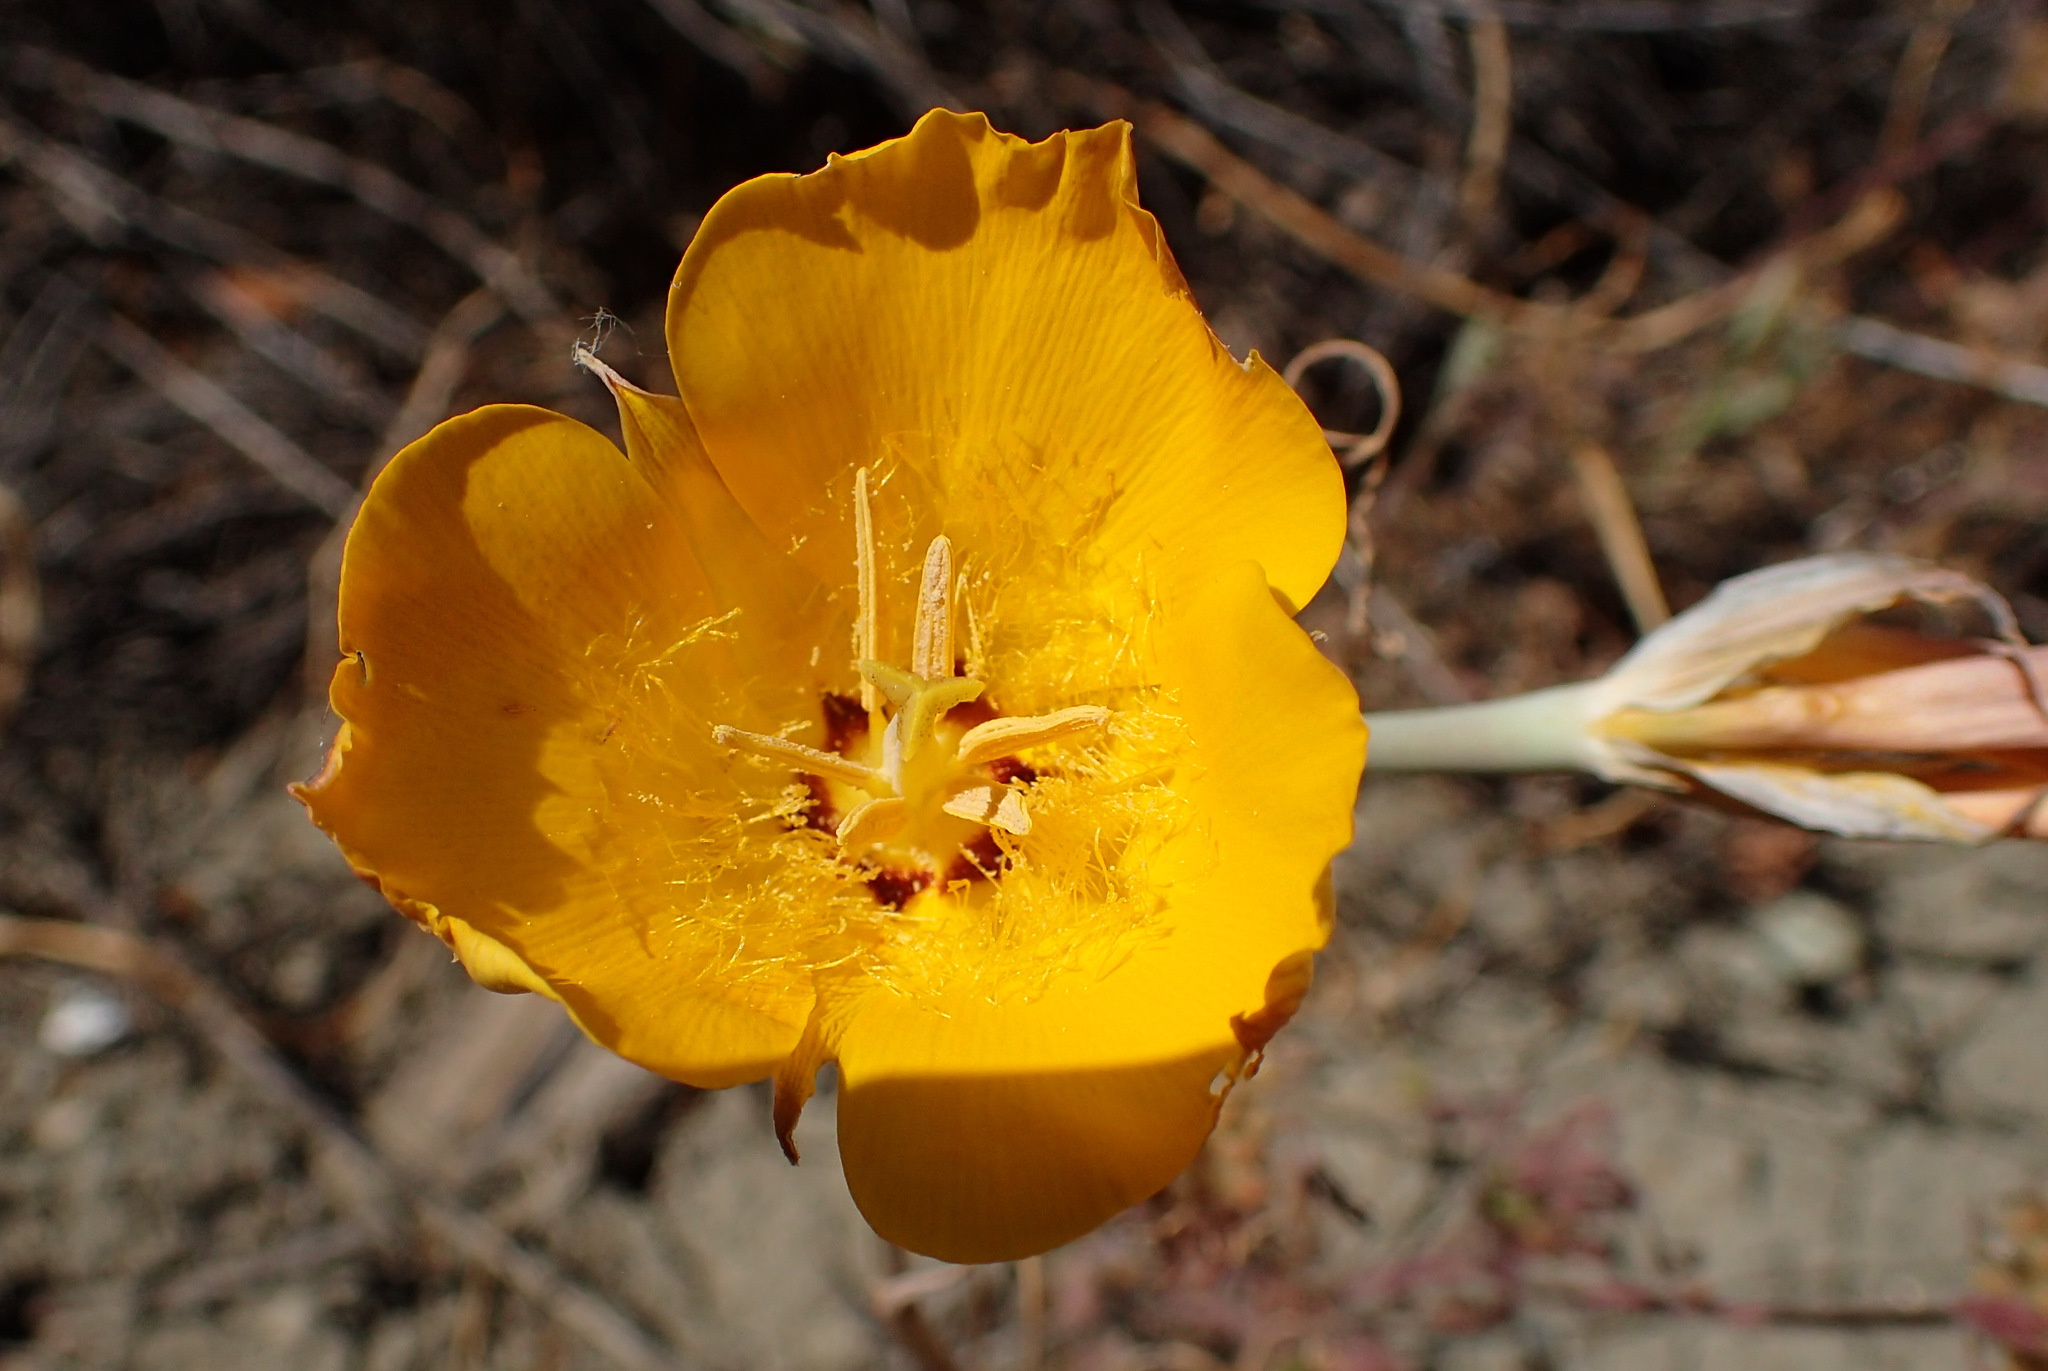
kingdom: Plantae
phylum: Tracheophyta
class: Liliopsida
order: Liliales
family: Liliaceae
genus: Calochortus
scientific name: Calochortus clavatus
